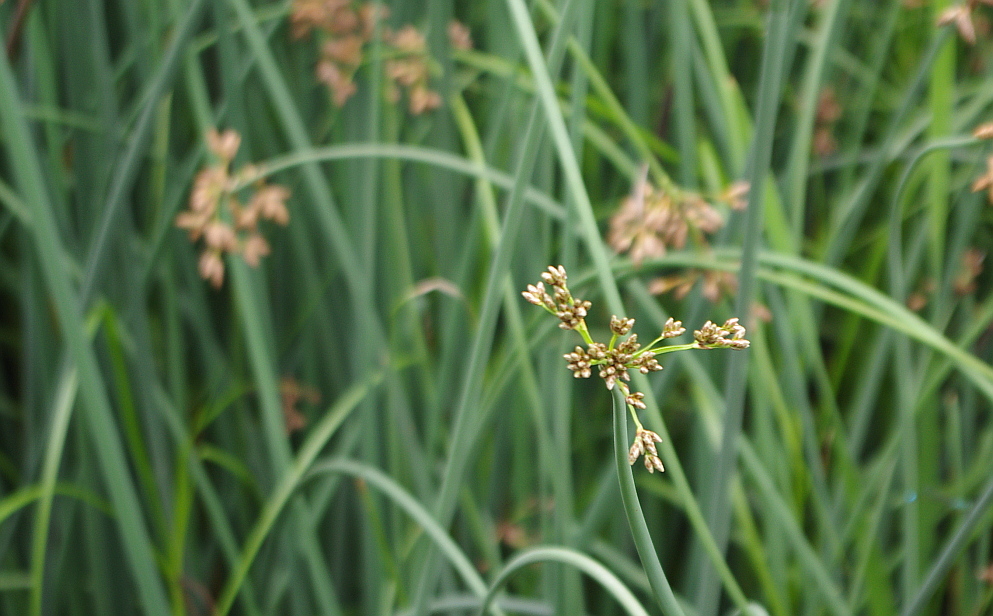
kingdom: Plantae
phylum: Tracheophyta
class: Liliopsida
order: Poales
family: Cyperaceae
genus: Schoenoplectus
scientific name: Schoenoplectus lacustris
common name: Common club-rush
